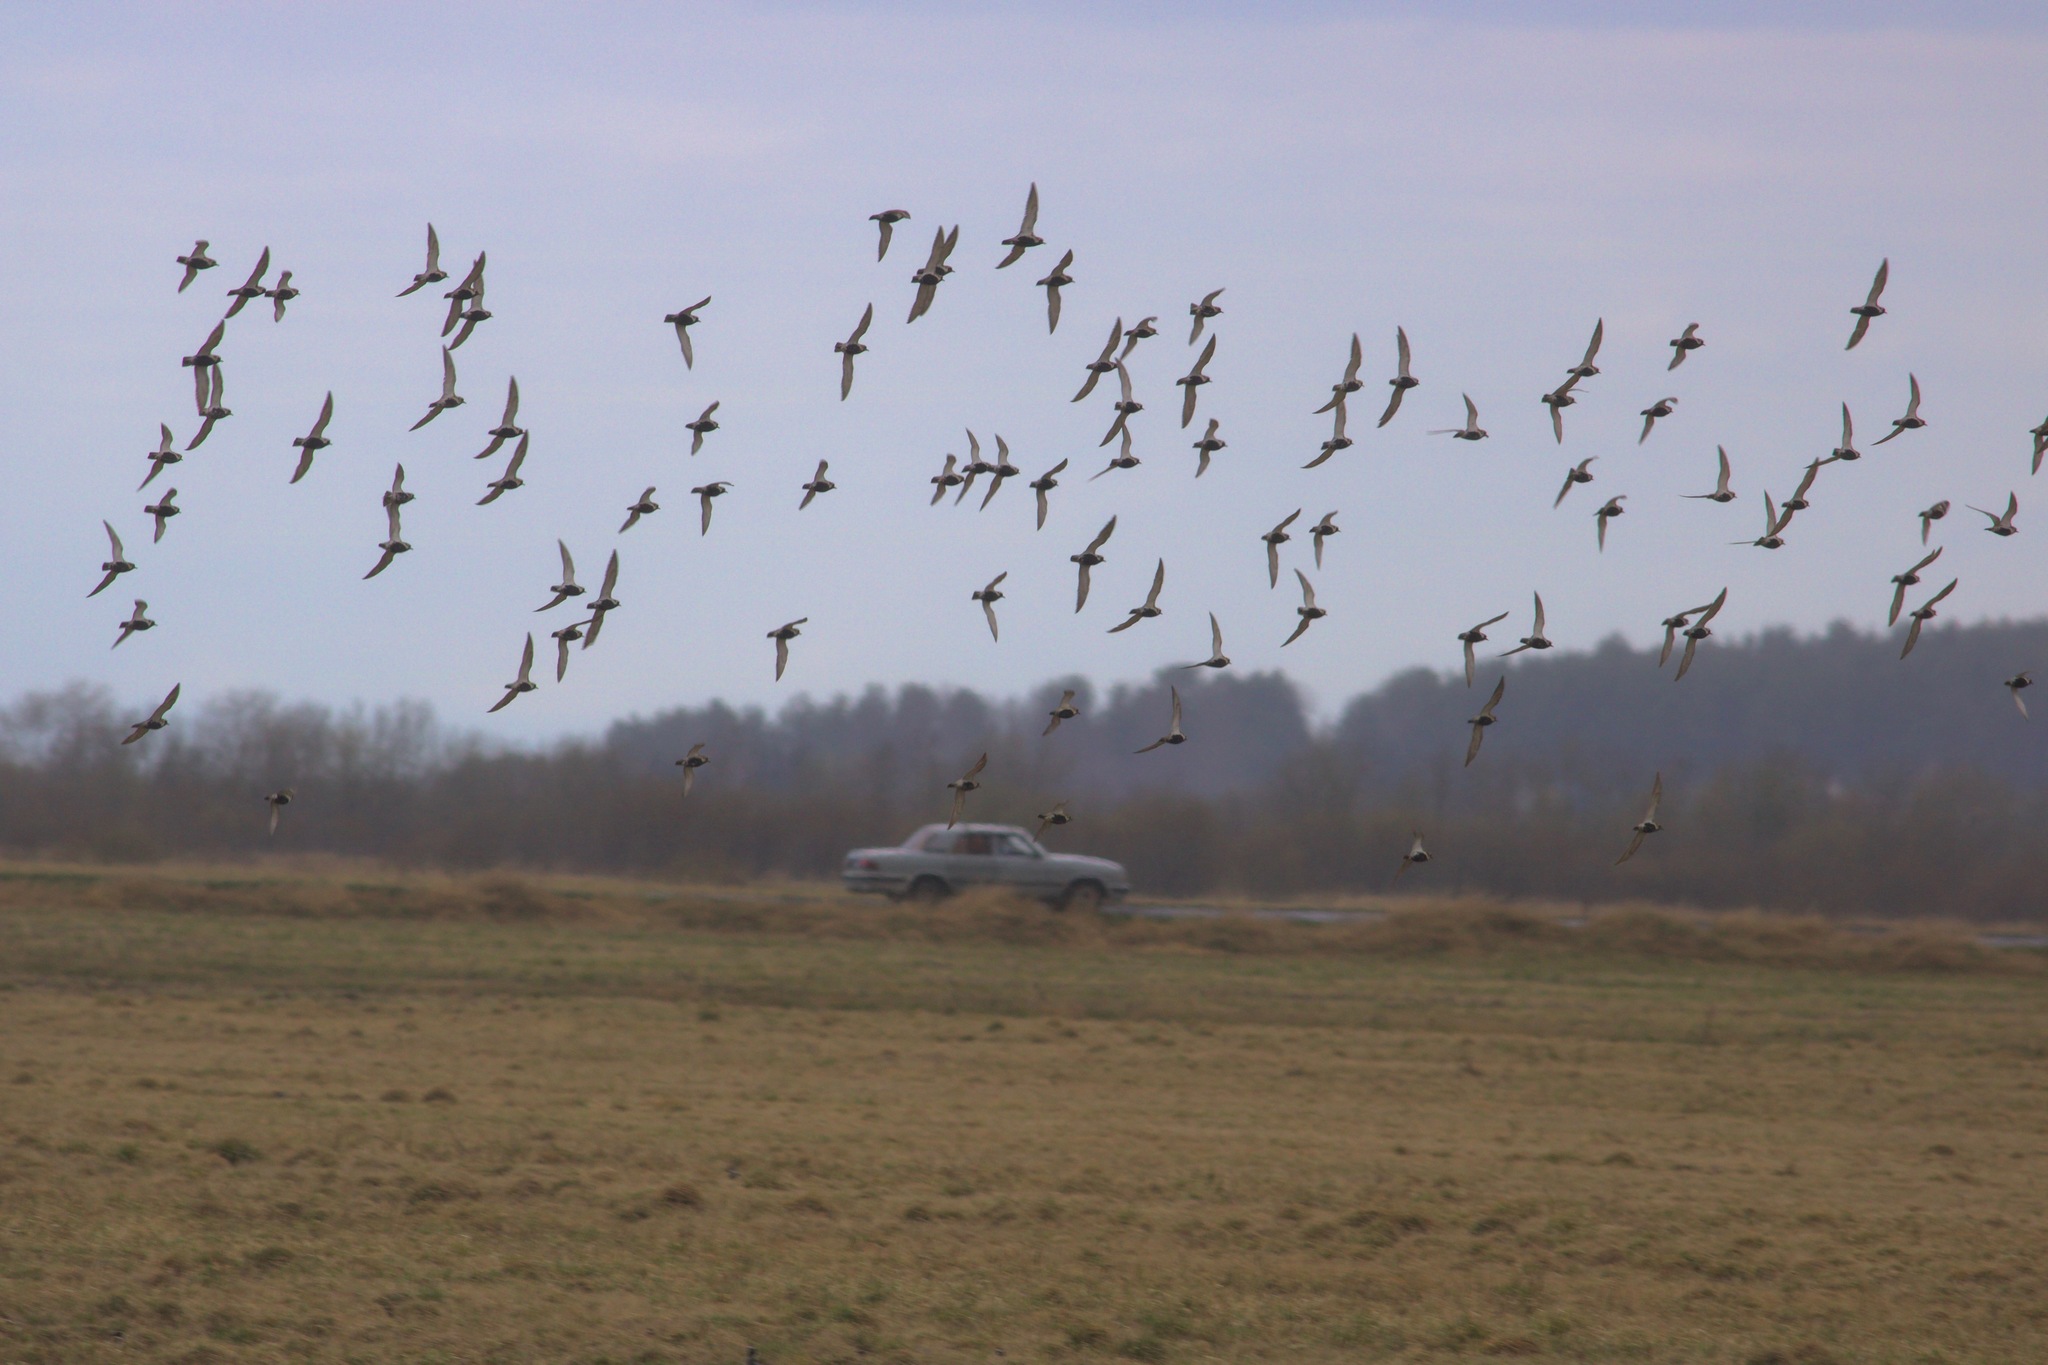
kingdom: Animalia
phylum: Chordata
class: Aves
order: Charadriiformes
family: Charadriidae
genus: Pluvialis
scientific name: Pluvialis apricaria
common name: European golden plover
